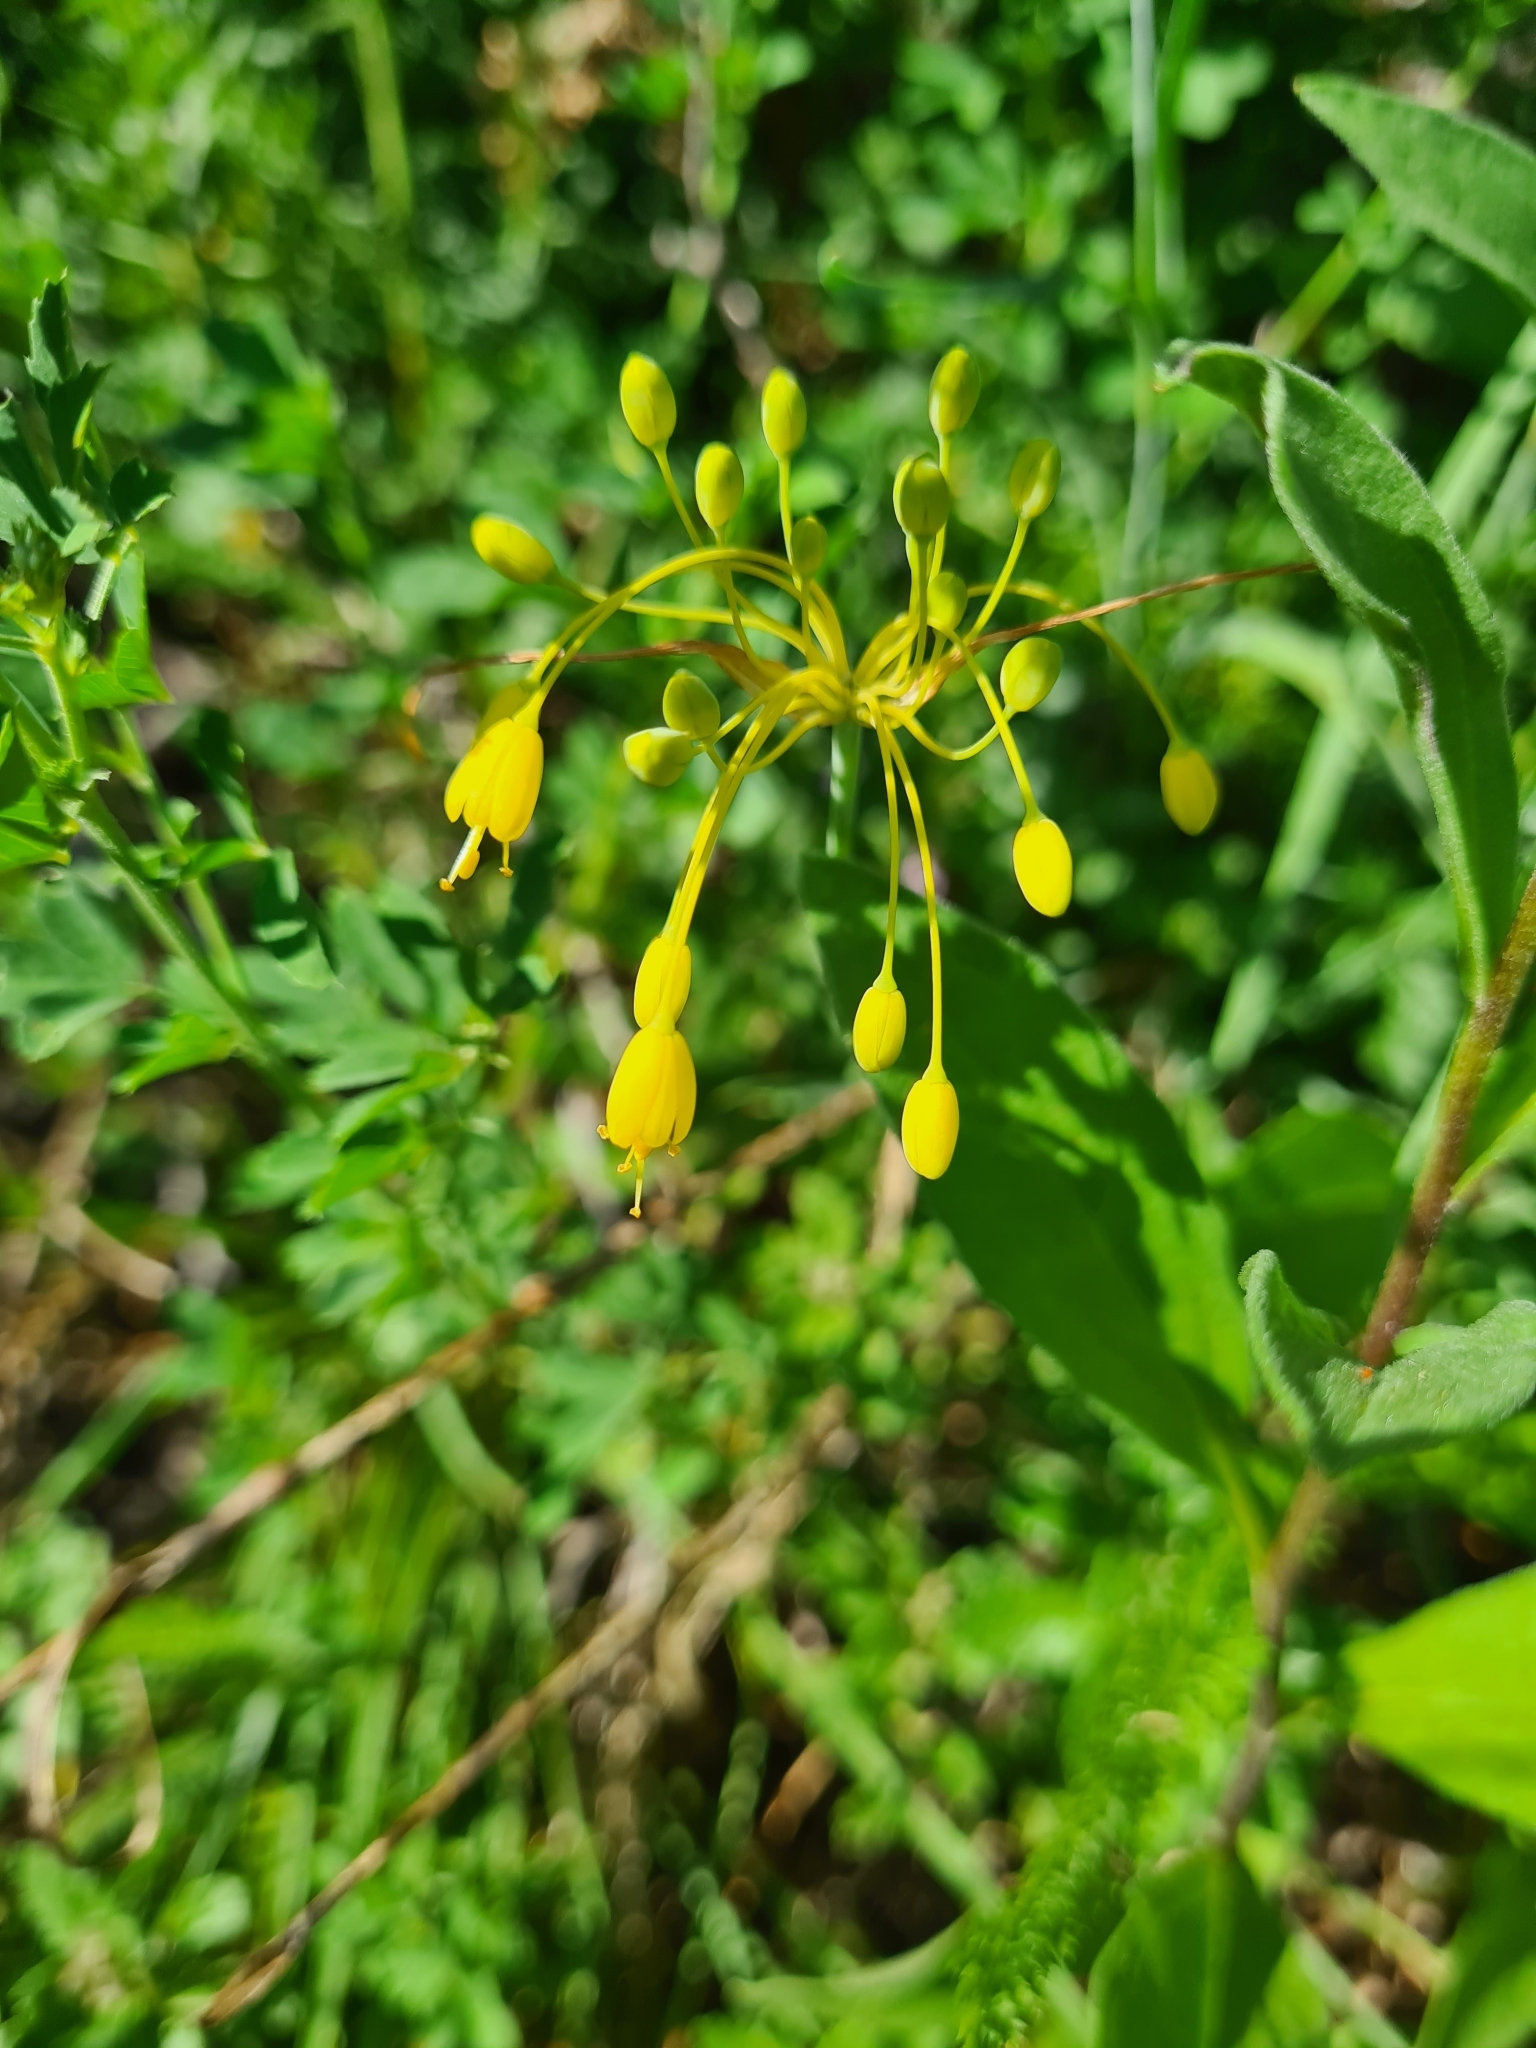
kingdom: Plantae
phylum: Tracheophyta
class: Liliopsida
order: Asparagales
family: Amaryllidaceae
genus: Allium
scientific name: Allium flavum
